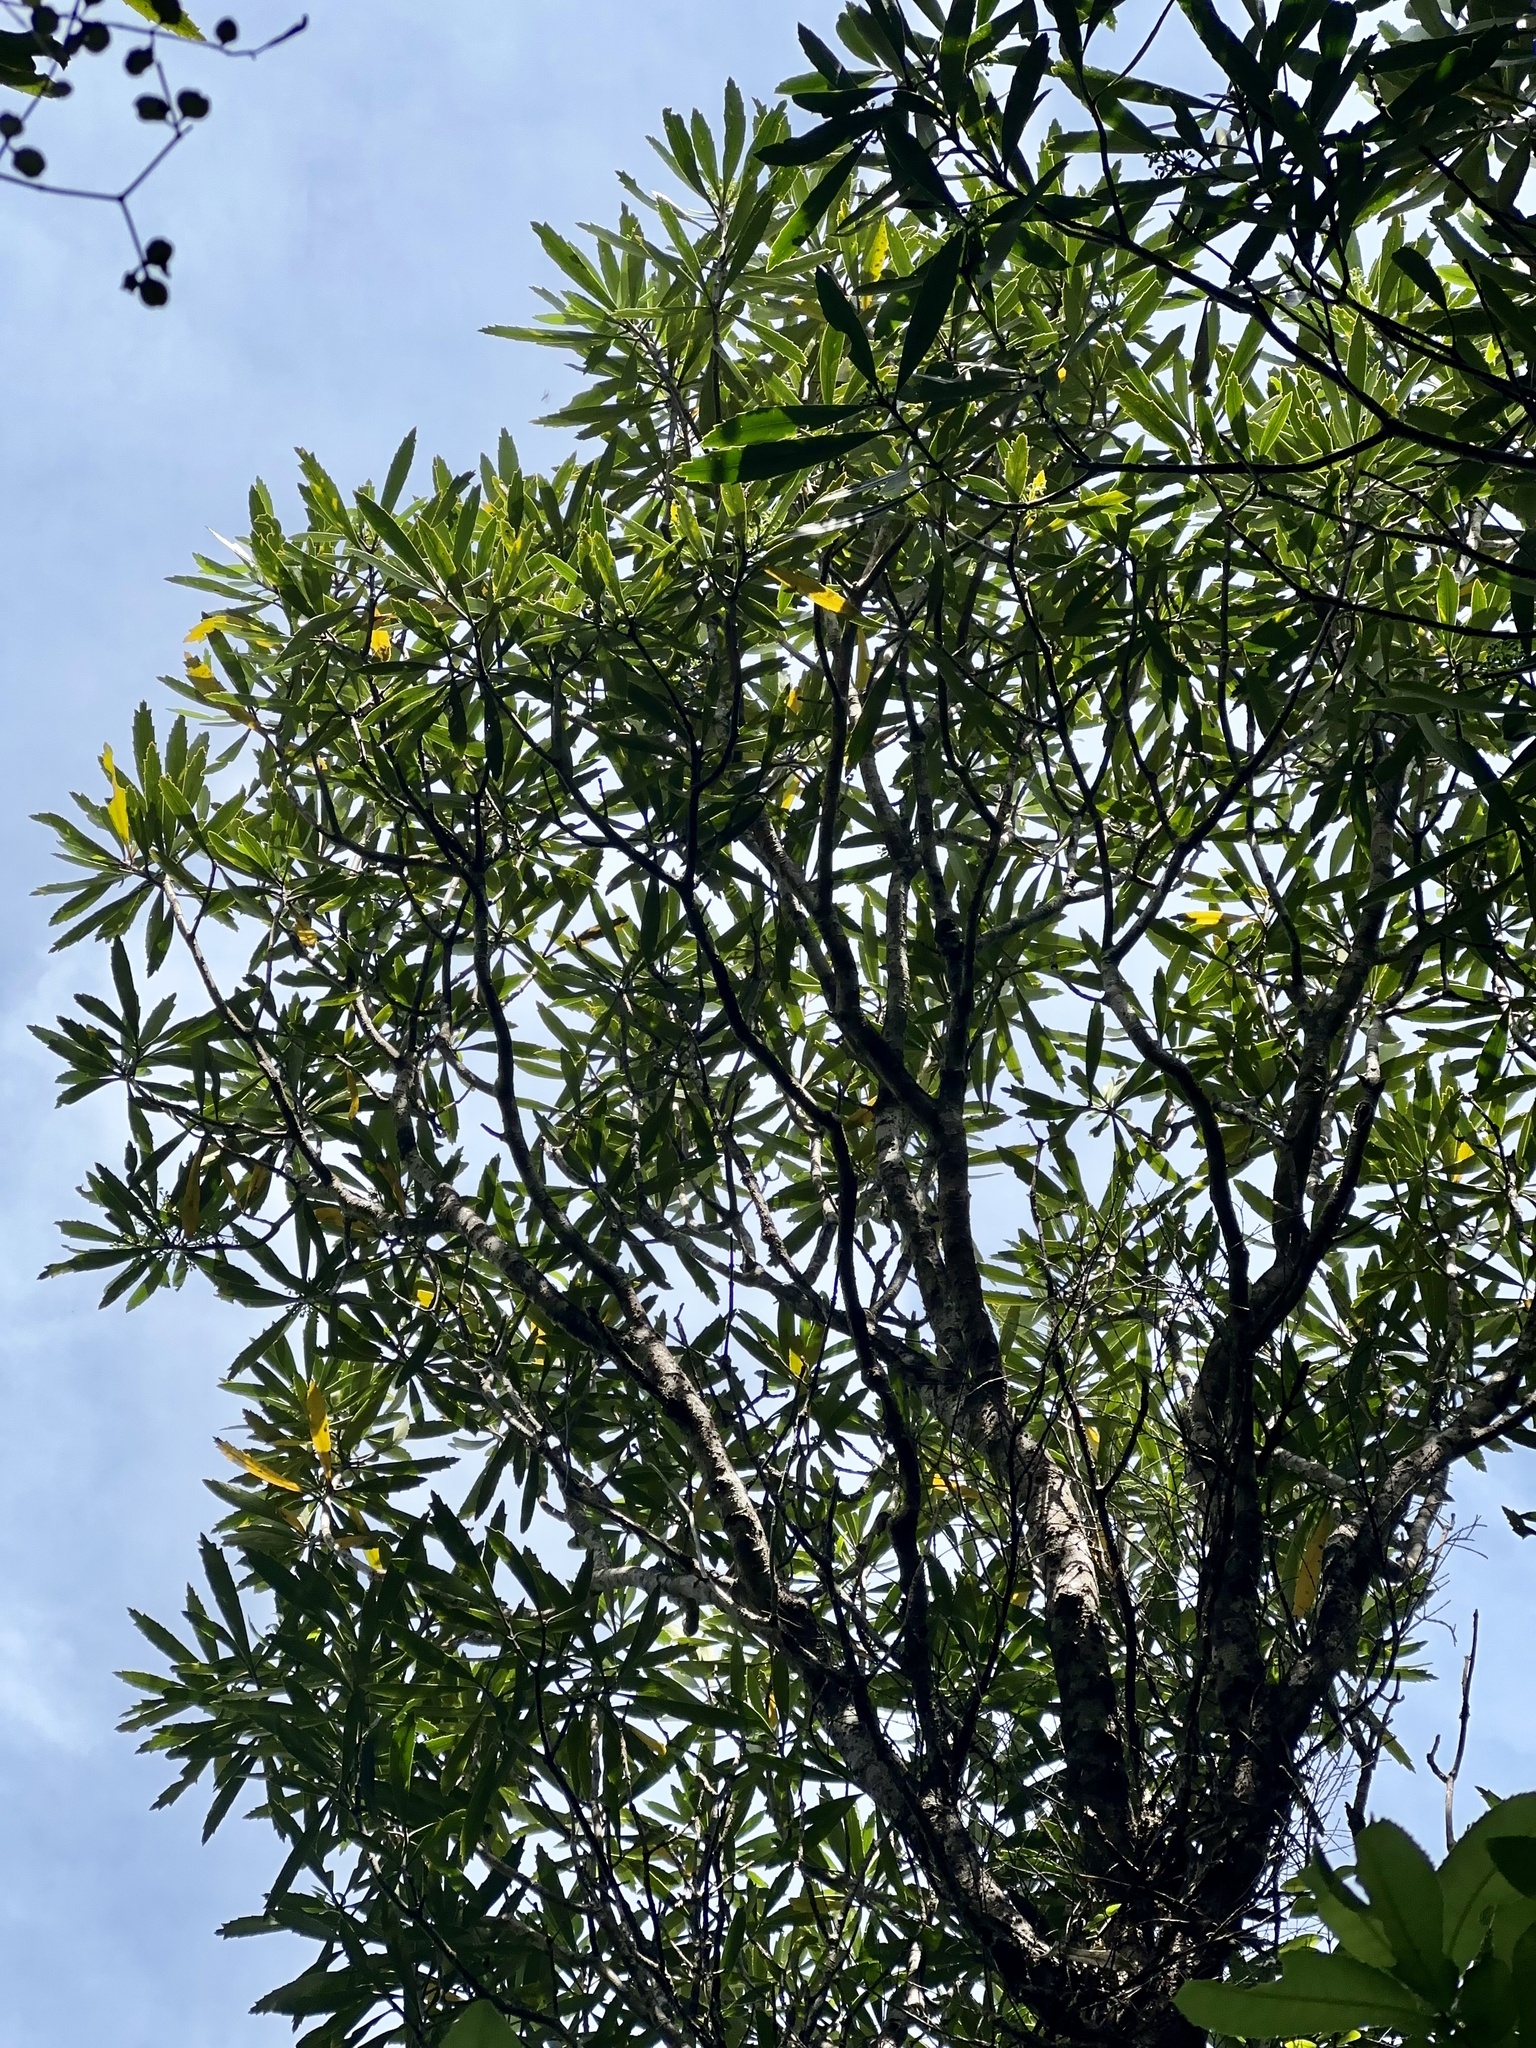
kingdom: Plantae
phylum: Tracheophyta
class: Magnoliopsida
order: Apiales
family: Araliaceae
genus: Pseudopanax
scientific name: Pseudopanax crassifolius
